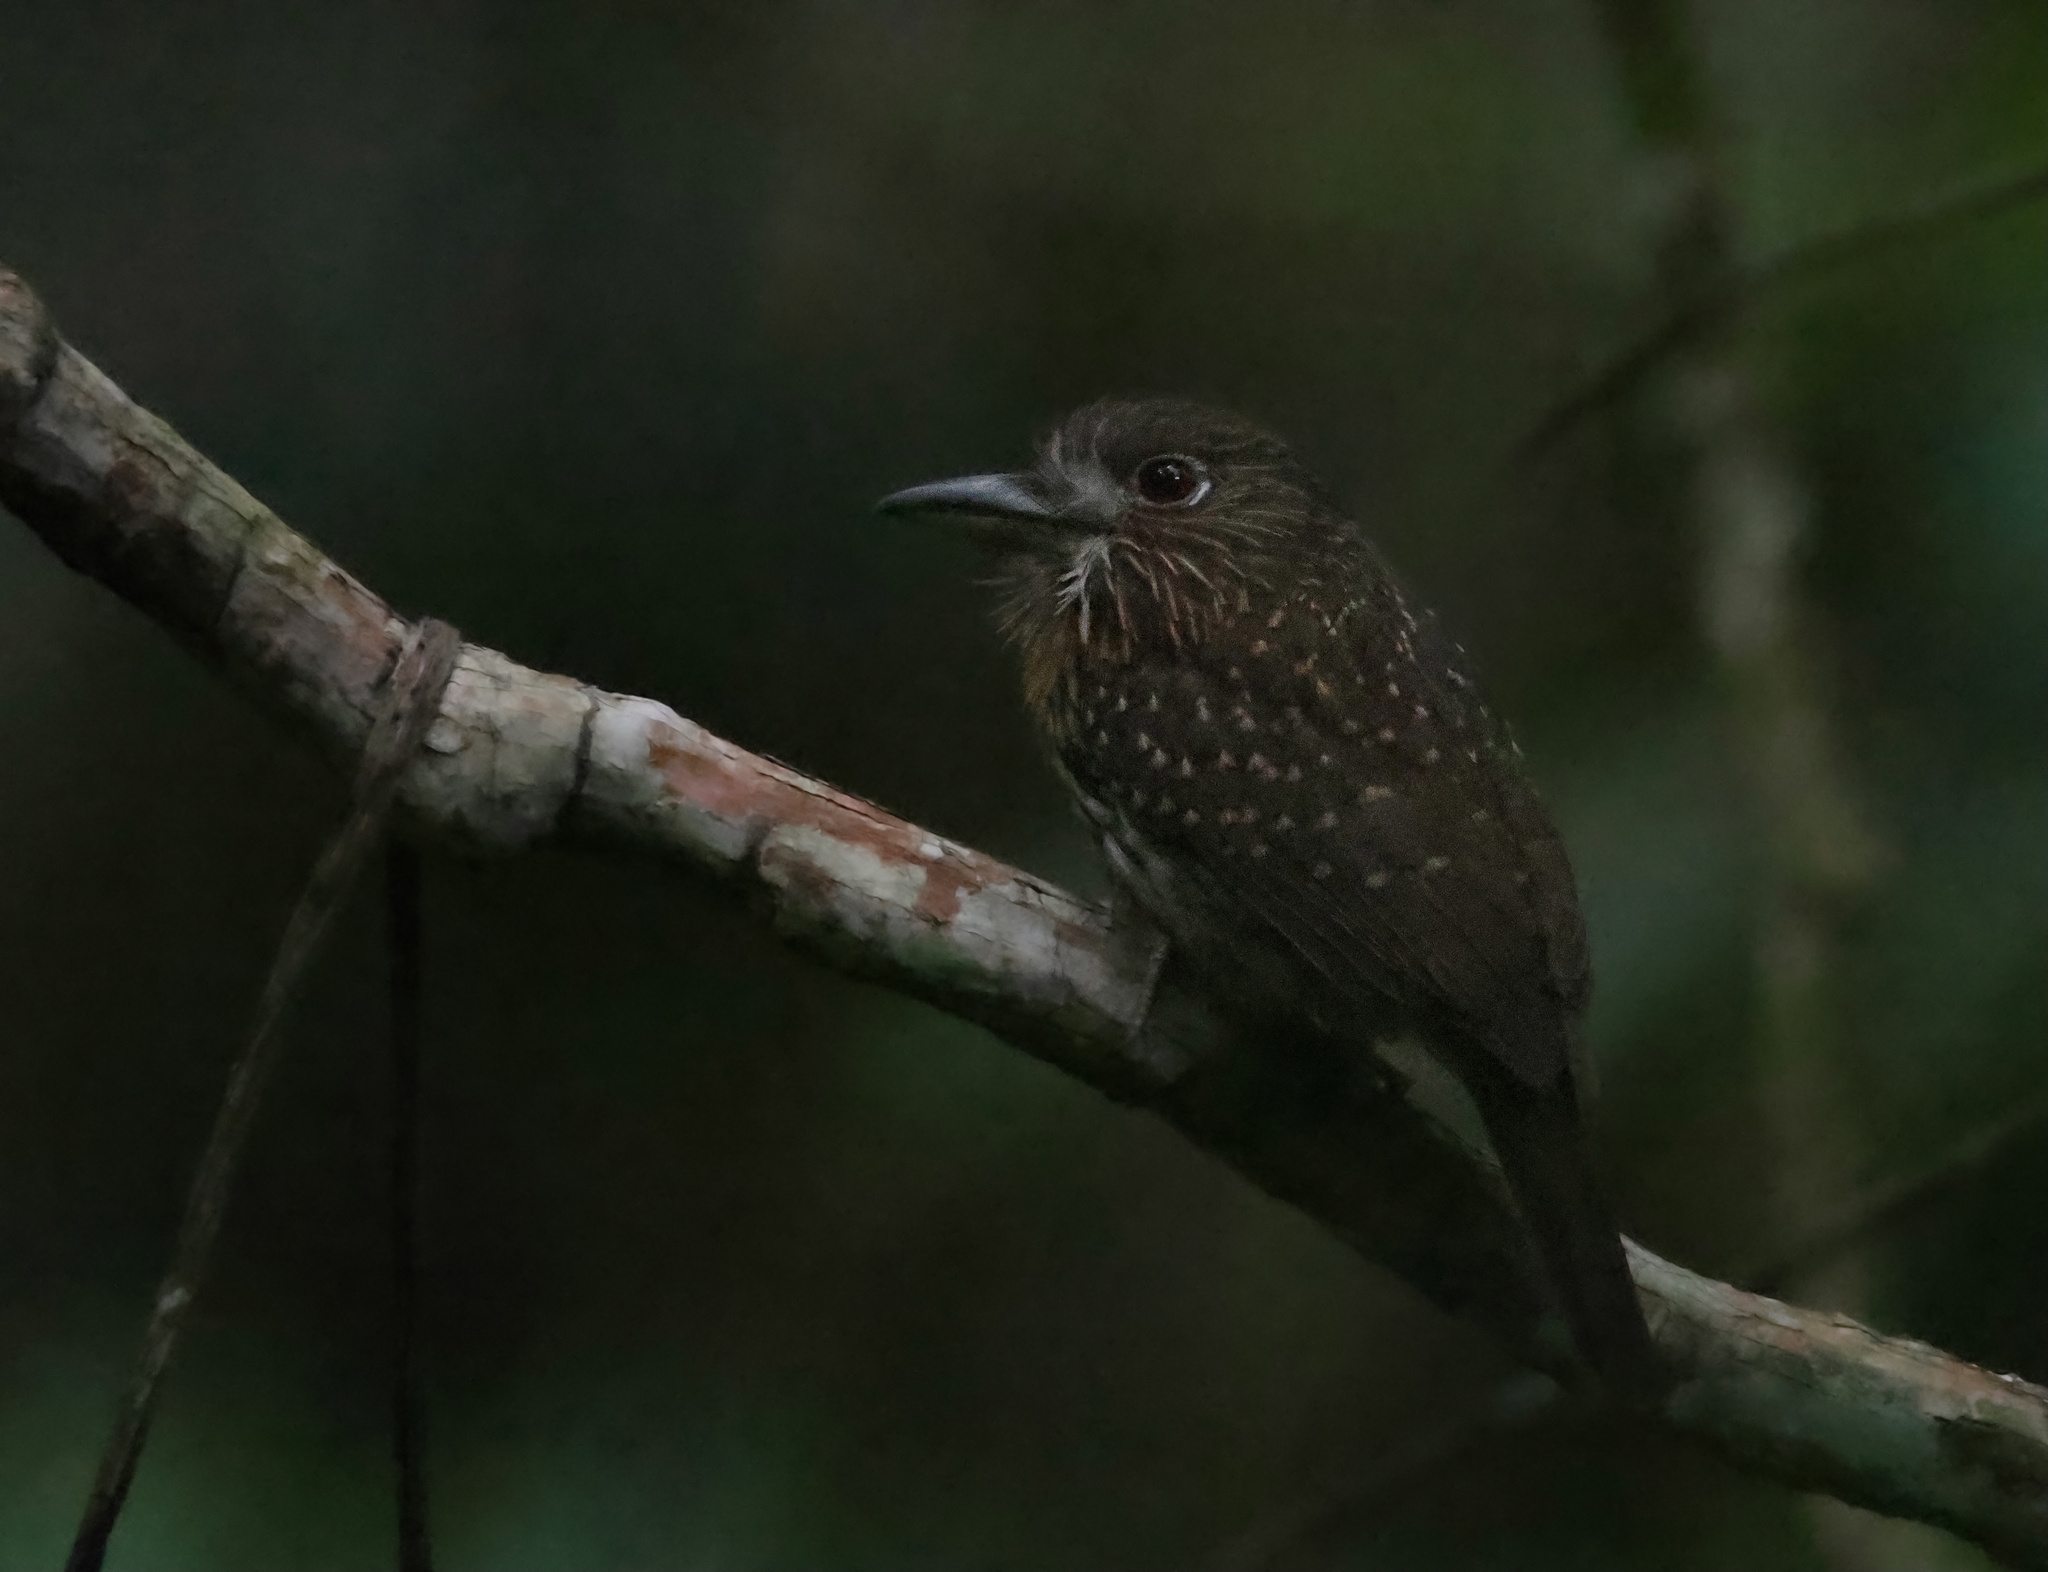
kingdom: Animalia
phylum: Chordata
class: Aves
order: Piciformes
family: Bucconidae
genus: Malacoptila
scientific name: Malacoptila panamensis
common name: White-whiskered puffbird
